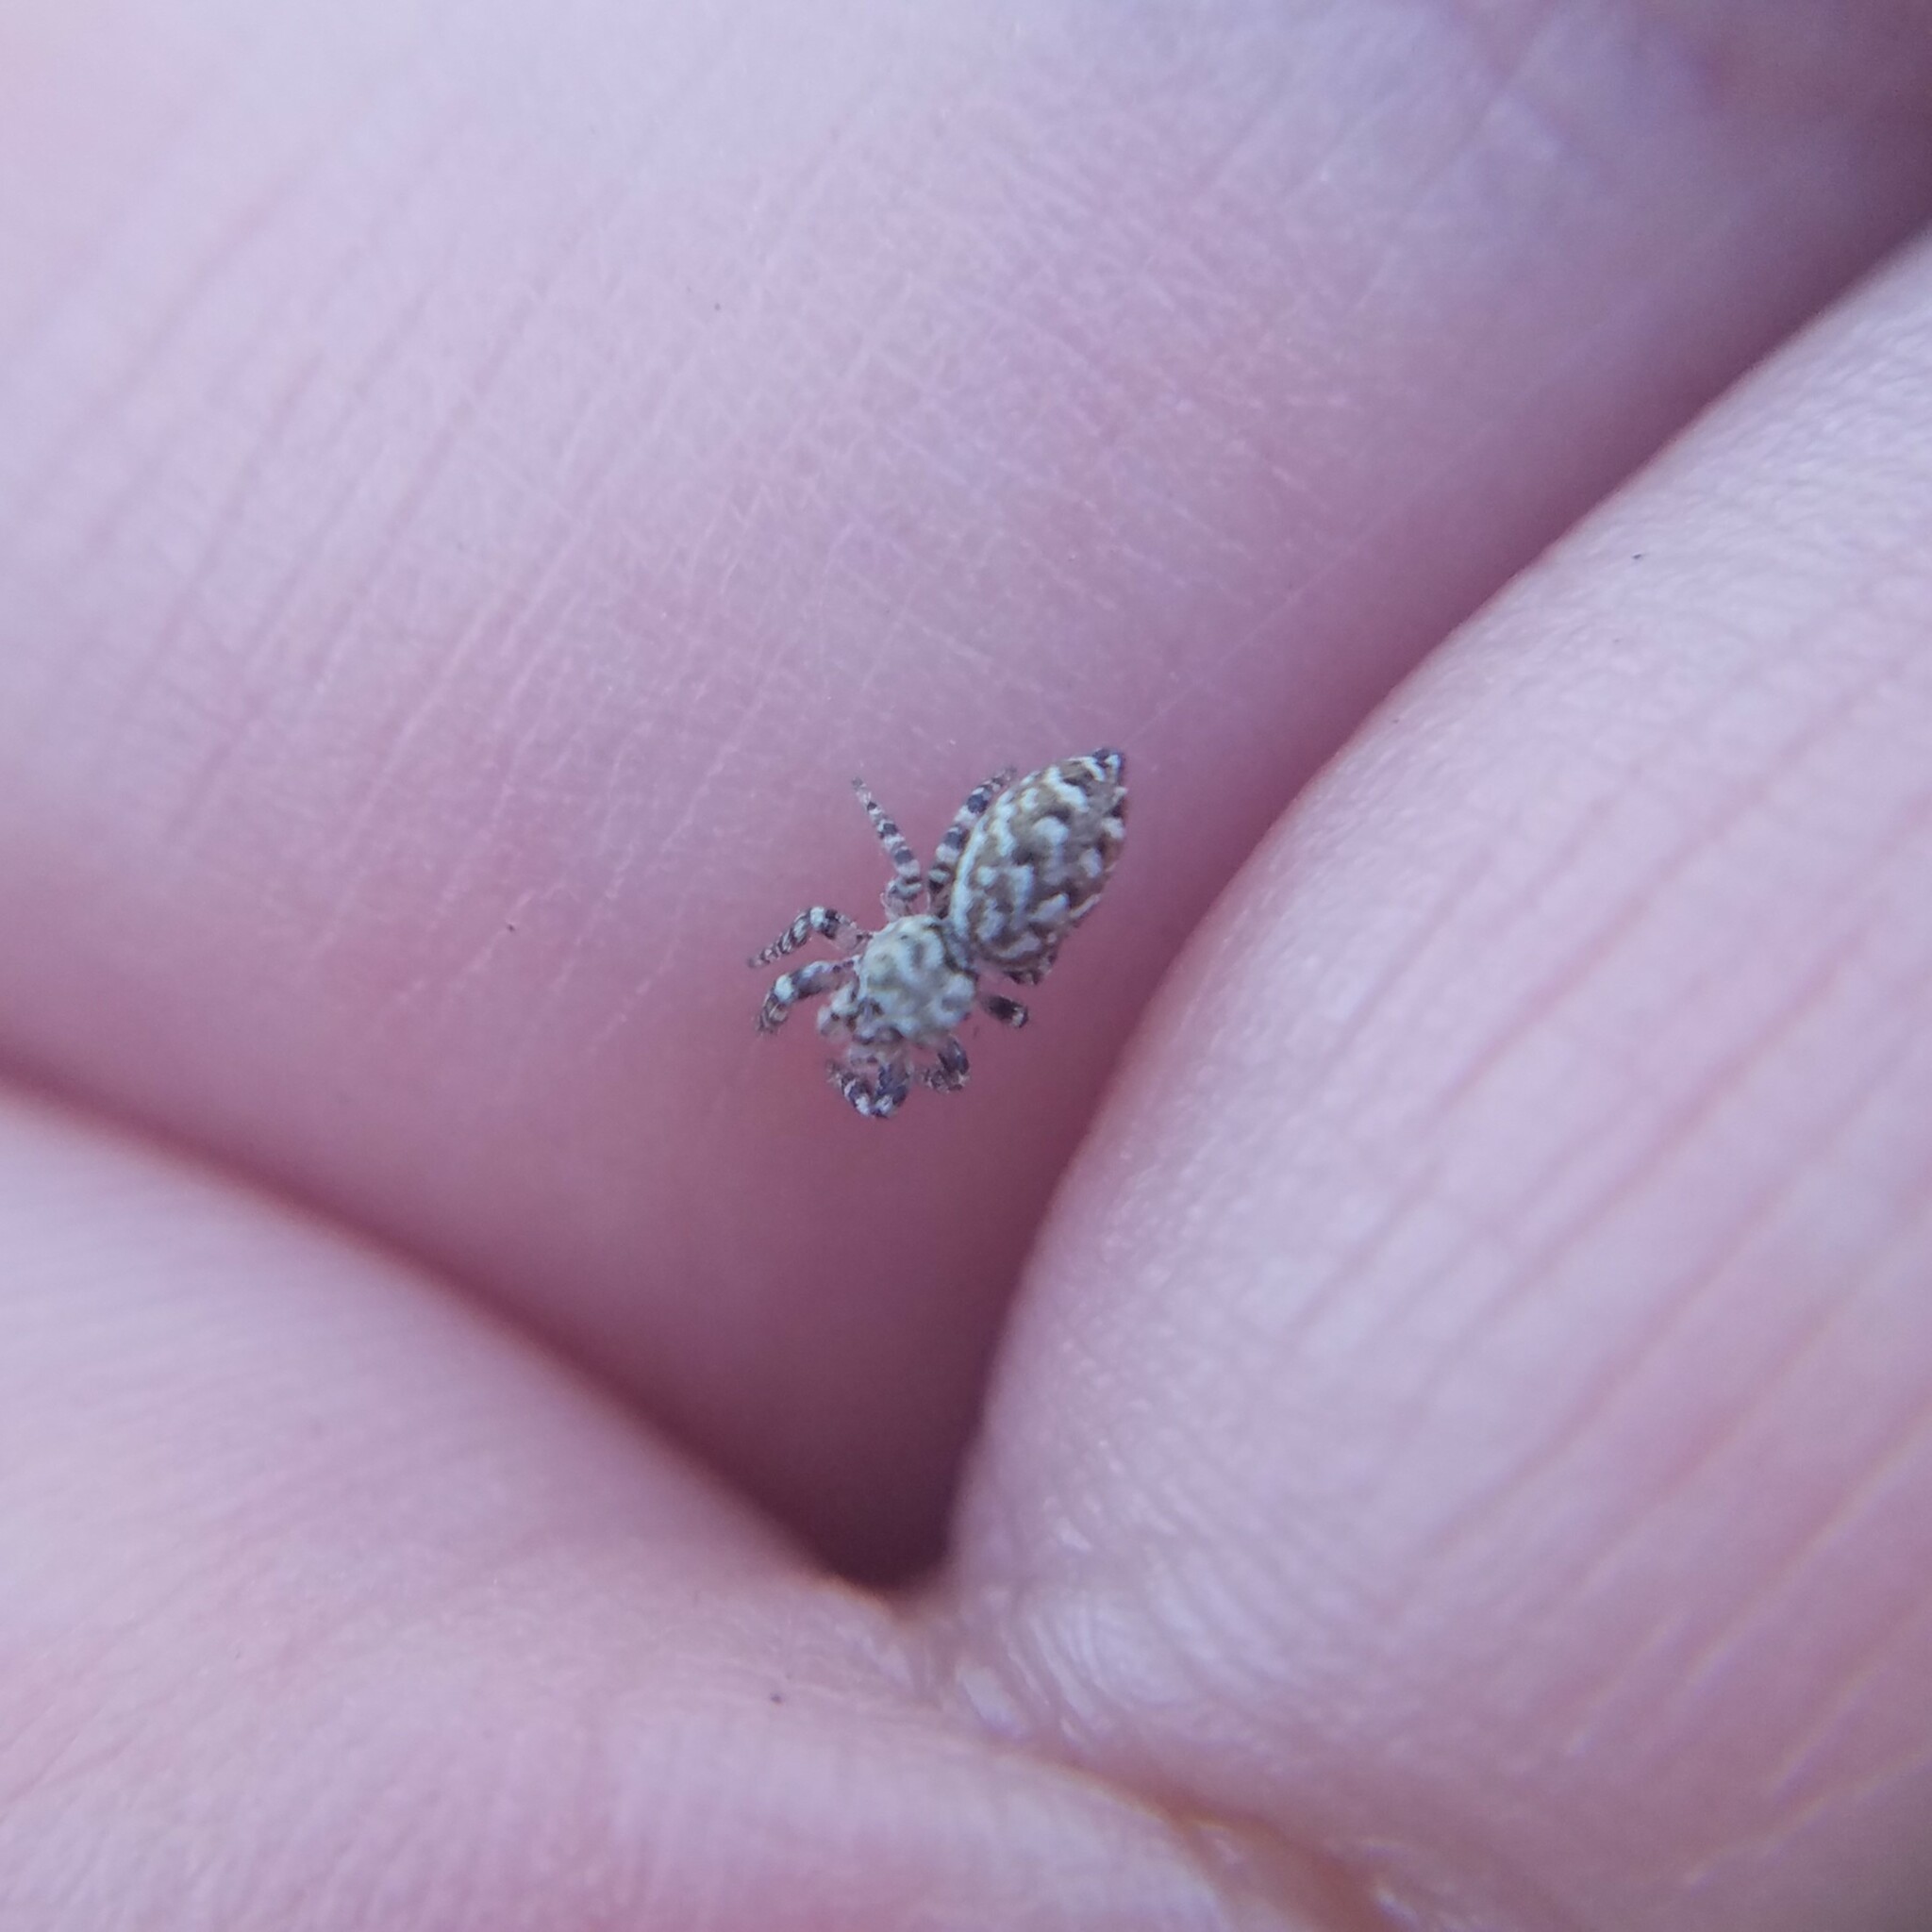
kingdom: Animalia
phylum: Arthropoda
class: Arachnida
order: Araneae
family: Salticidae
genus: Pelegrina
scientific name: Pelegrina galathea
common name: Jumping spiders
